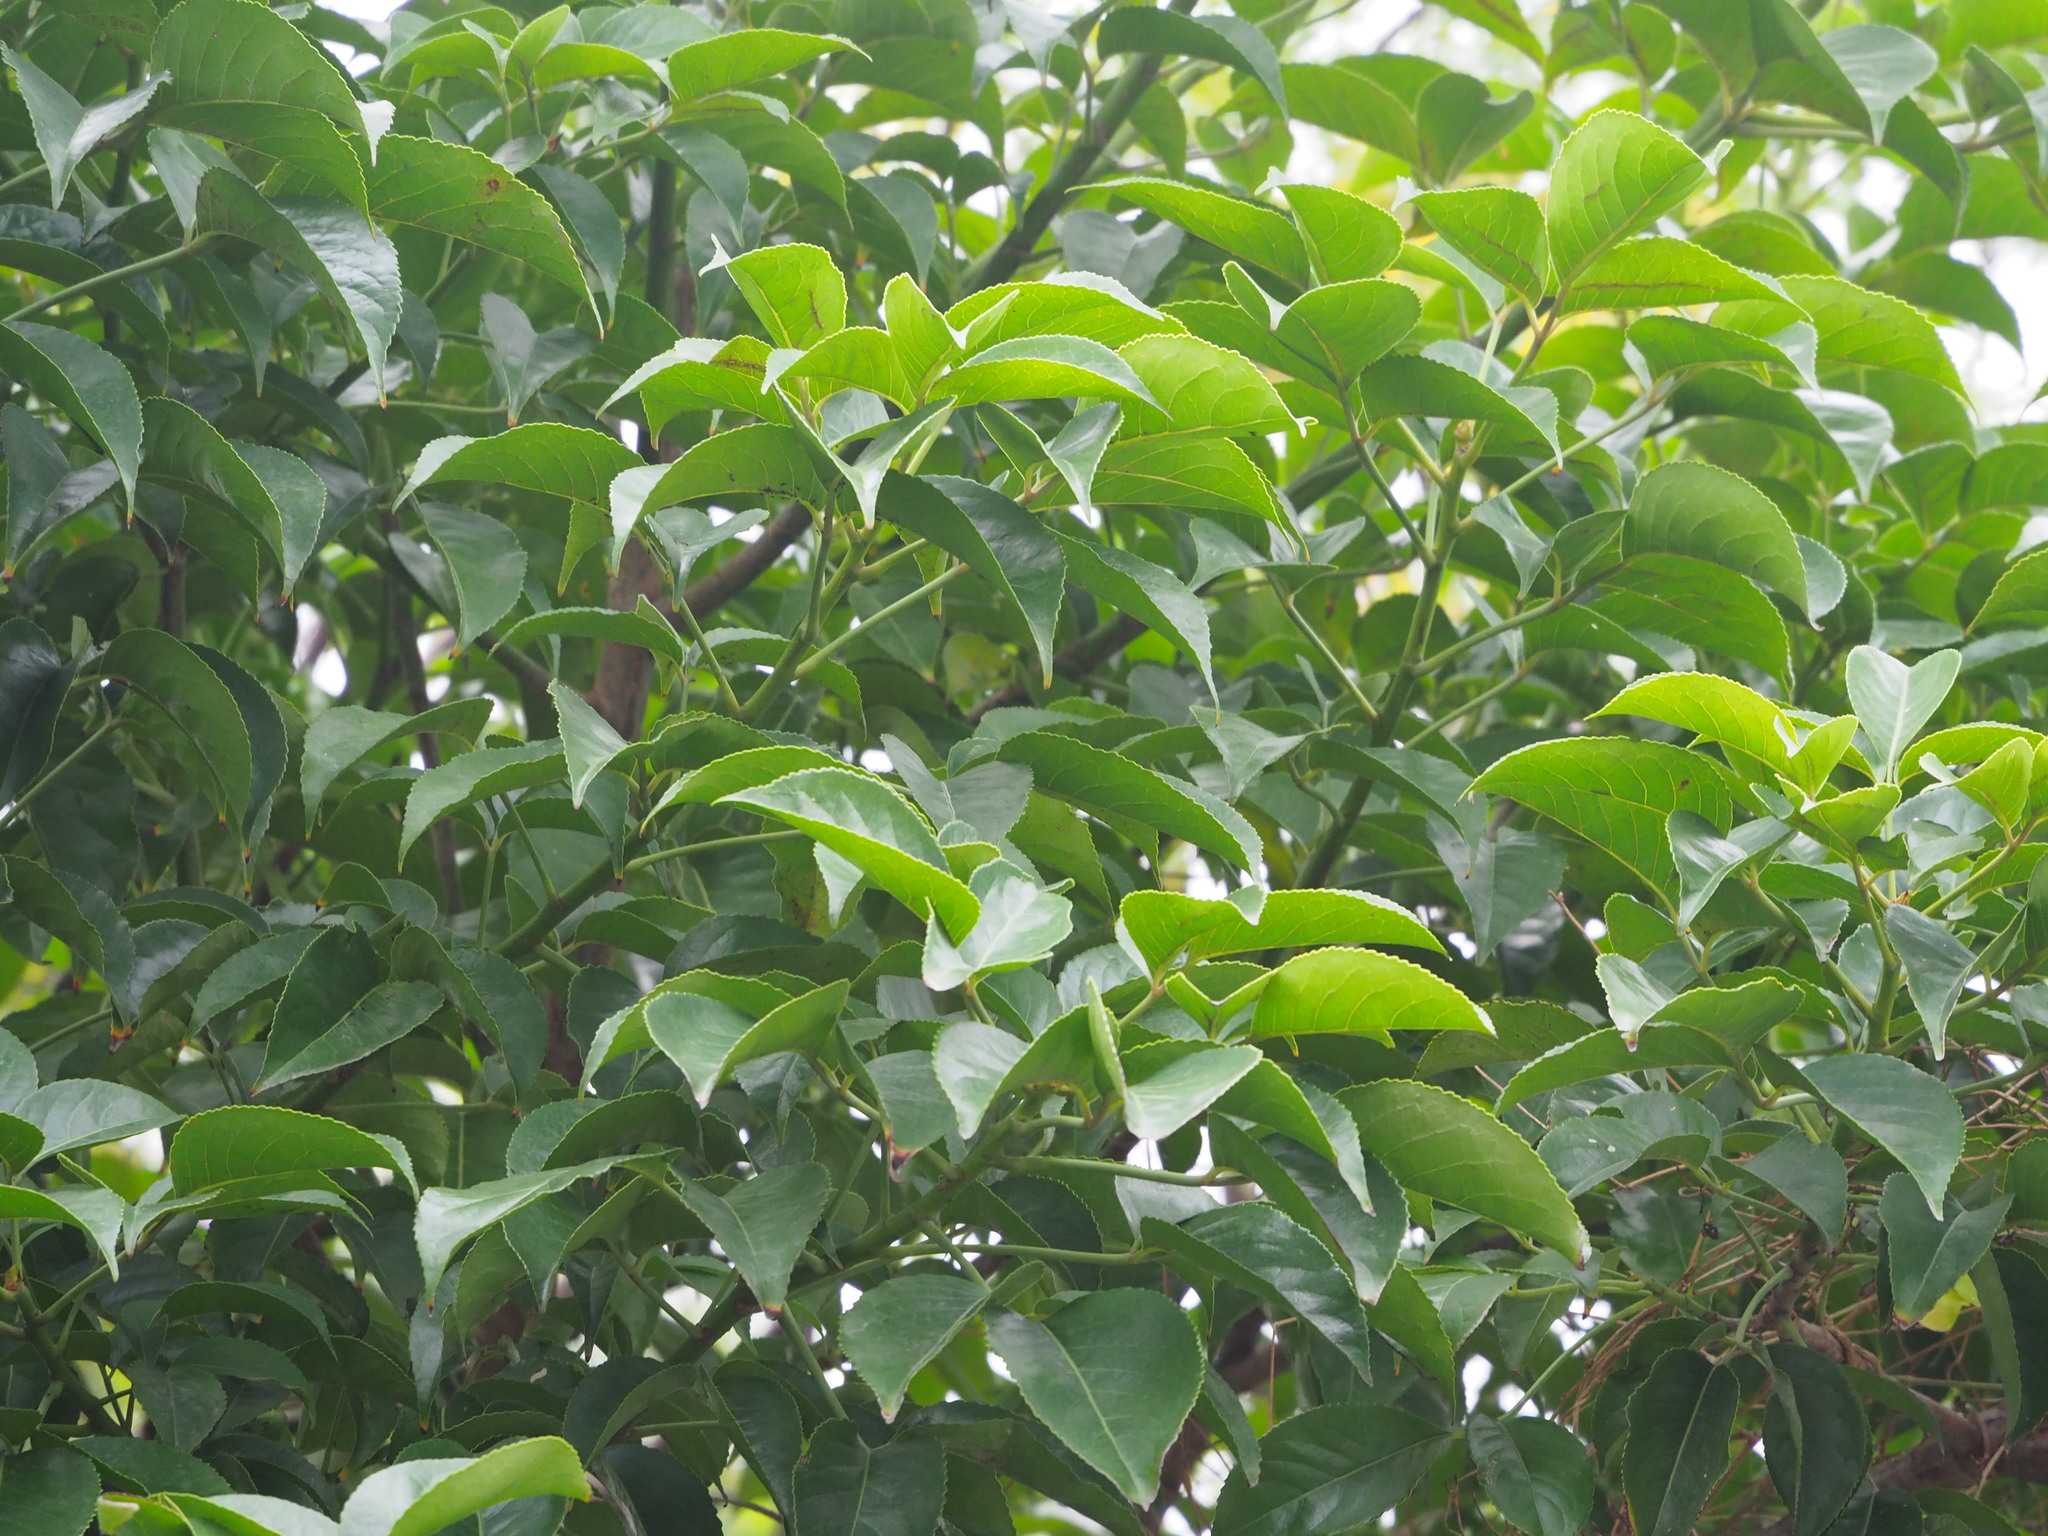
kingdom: Plantae
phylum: Tracheophyta
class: Magnoliopsida
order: Malpighiales
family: Phyllanthaceae
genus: Bischofia
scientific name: Bischofia javanica
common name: Javanese bishopwood
